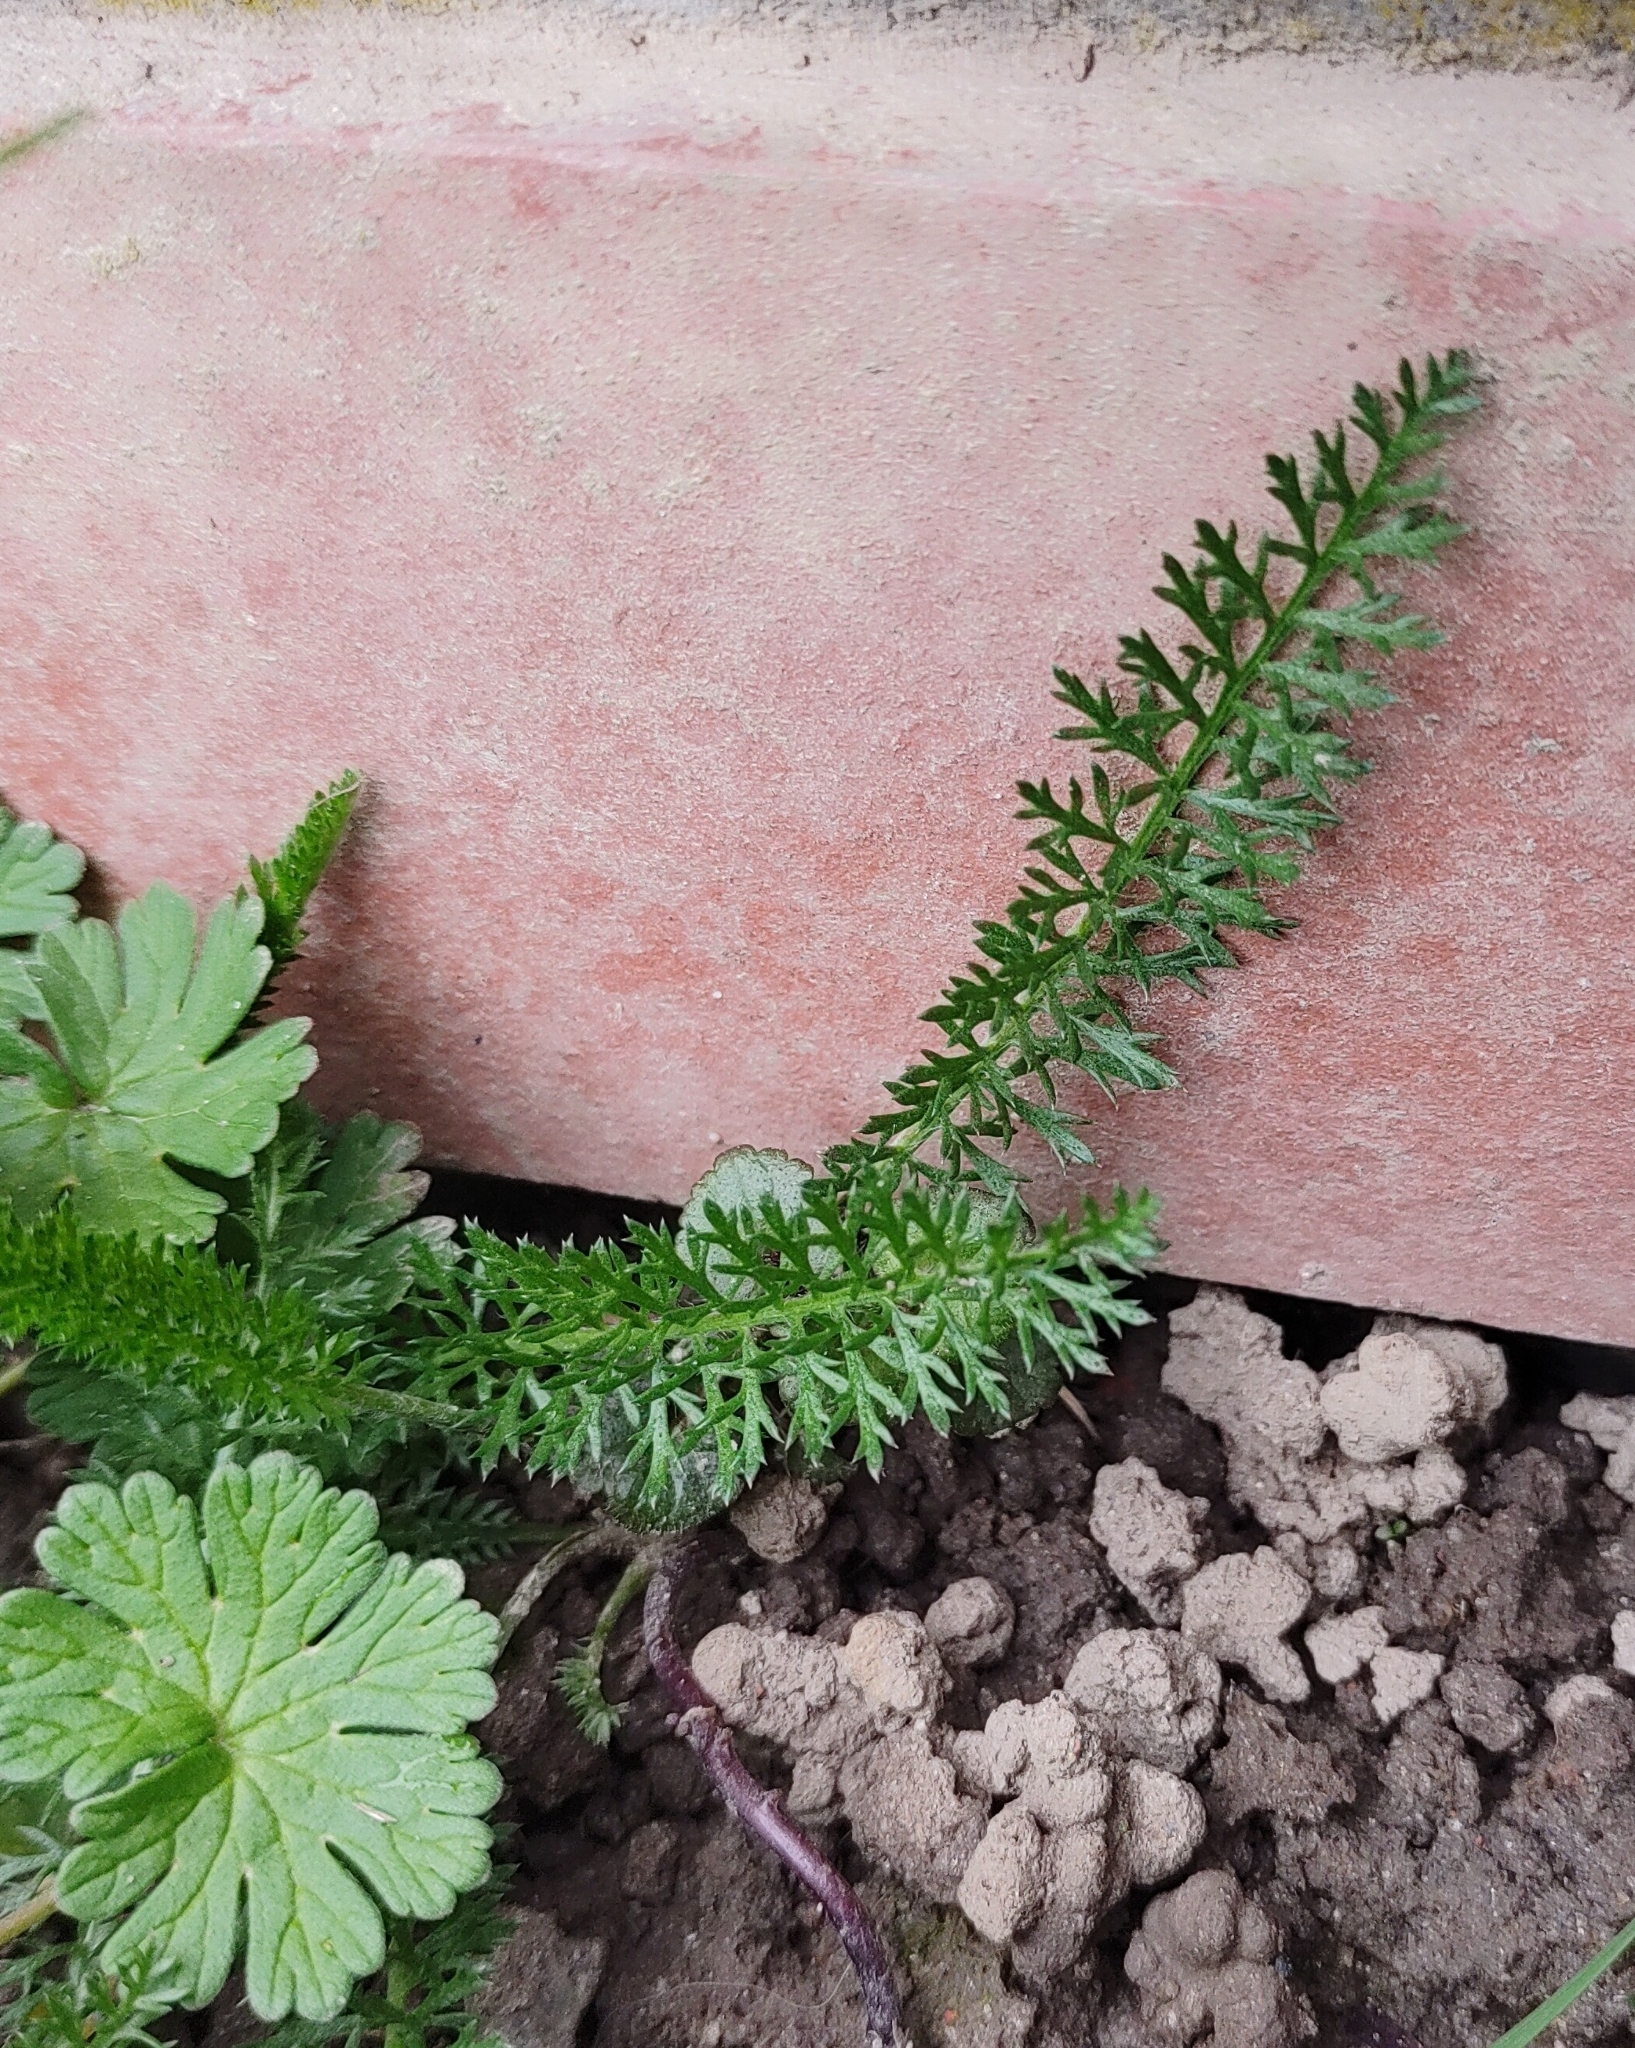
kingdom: Plantae
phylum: Tracheophyta
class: Magnoliopsida
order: Asterales
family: Asteraceae
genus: Achillea
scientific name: Achillea millefolium
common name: Yarrow
